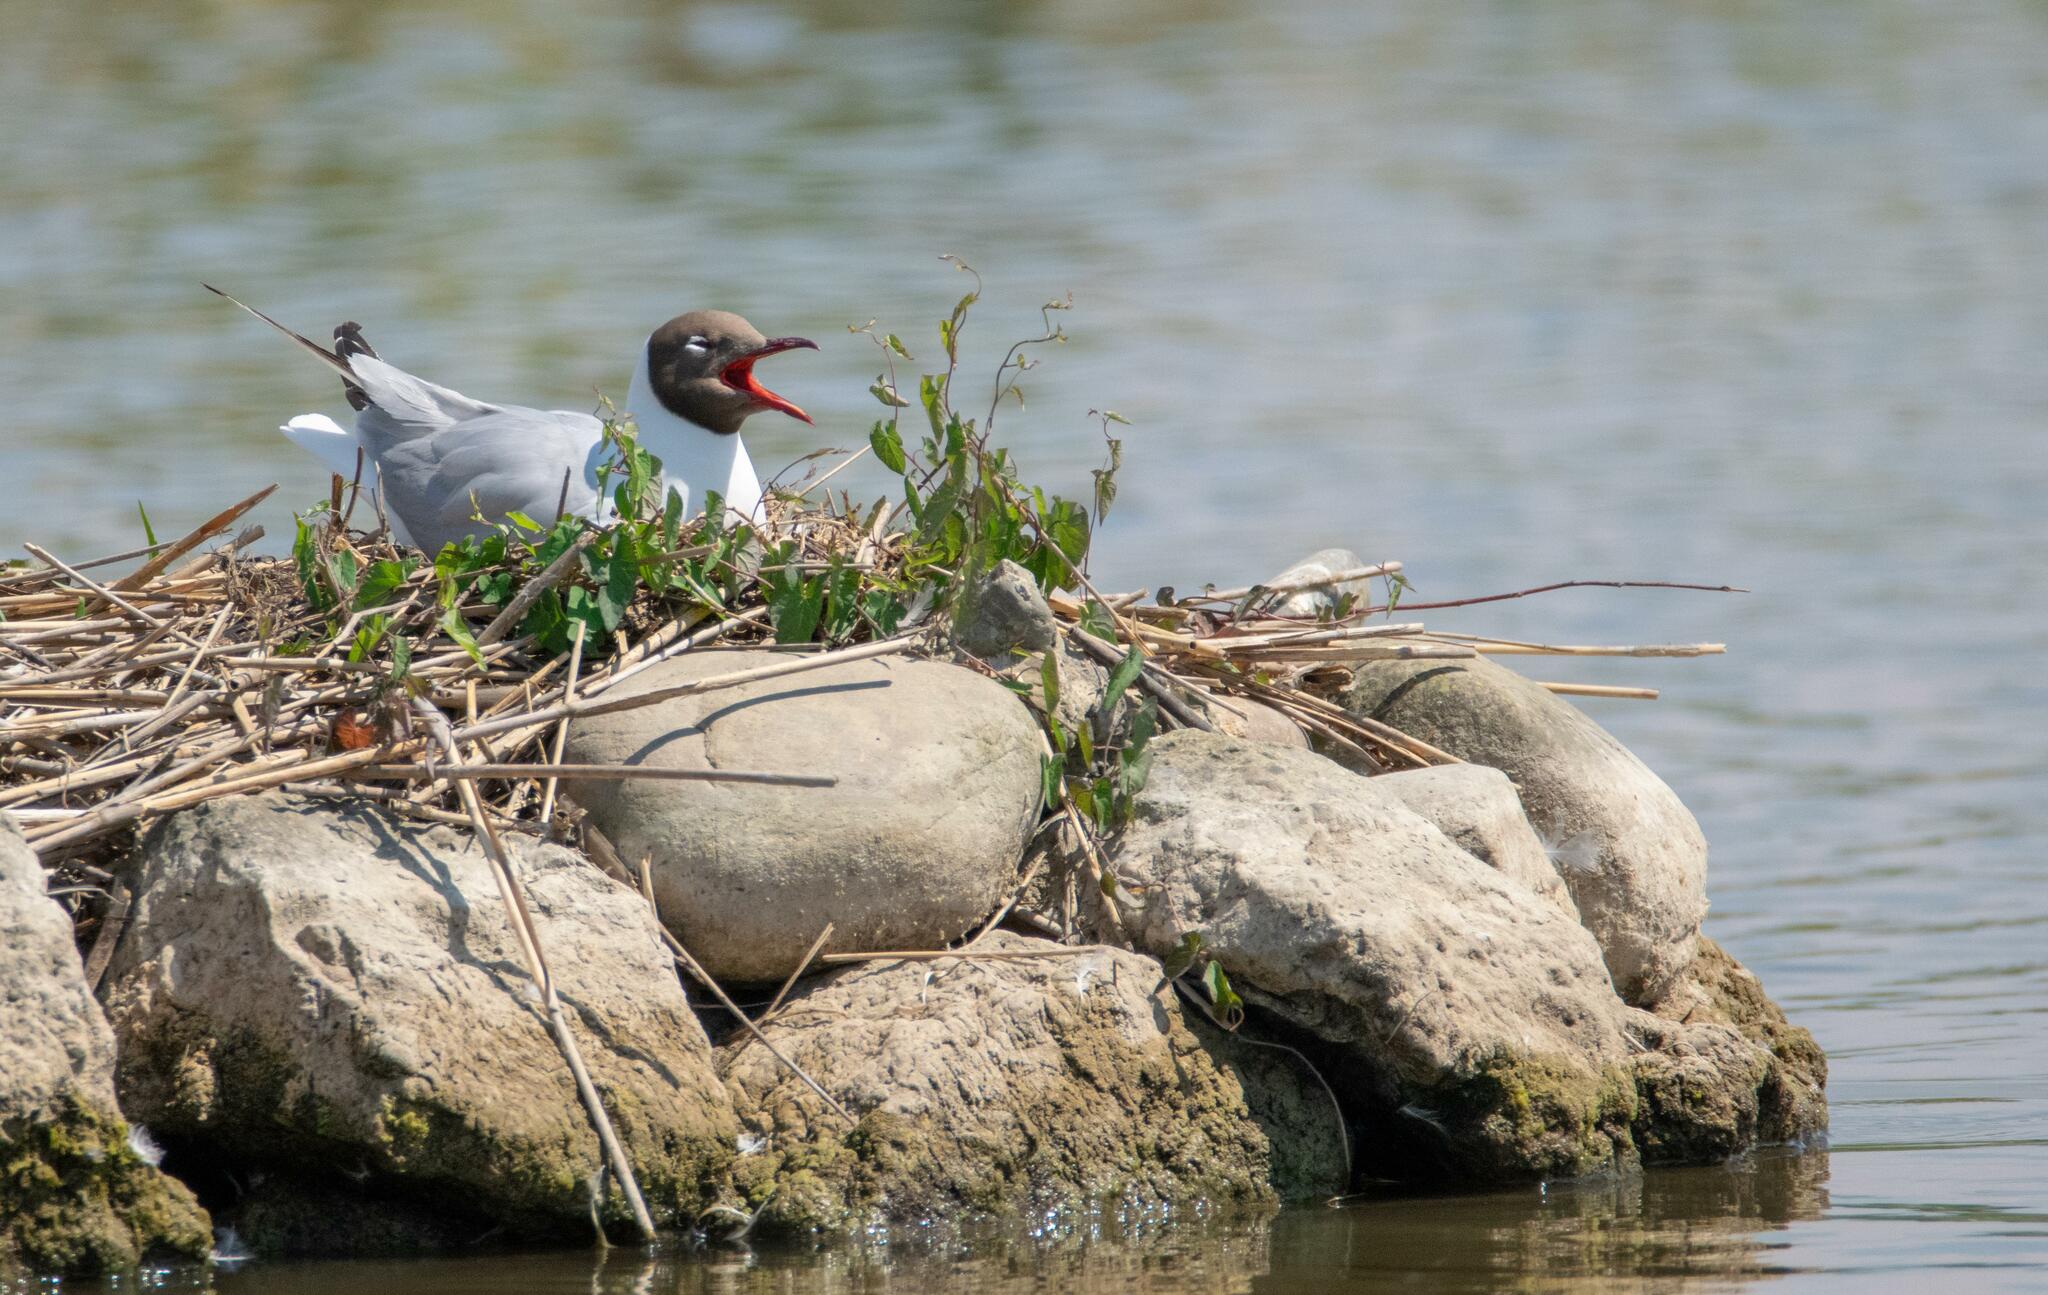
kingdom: Animalia
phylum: Chordata
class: Aves
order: Charadriiformes
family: Laridae
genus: Chroicocephalus
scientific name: Chroicocephalus ridibundus
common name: Black-headed gull
